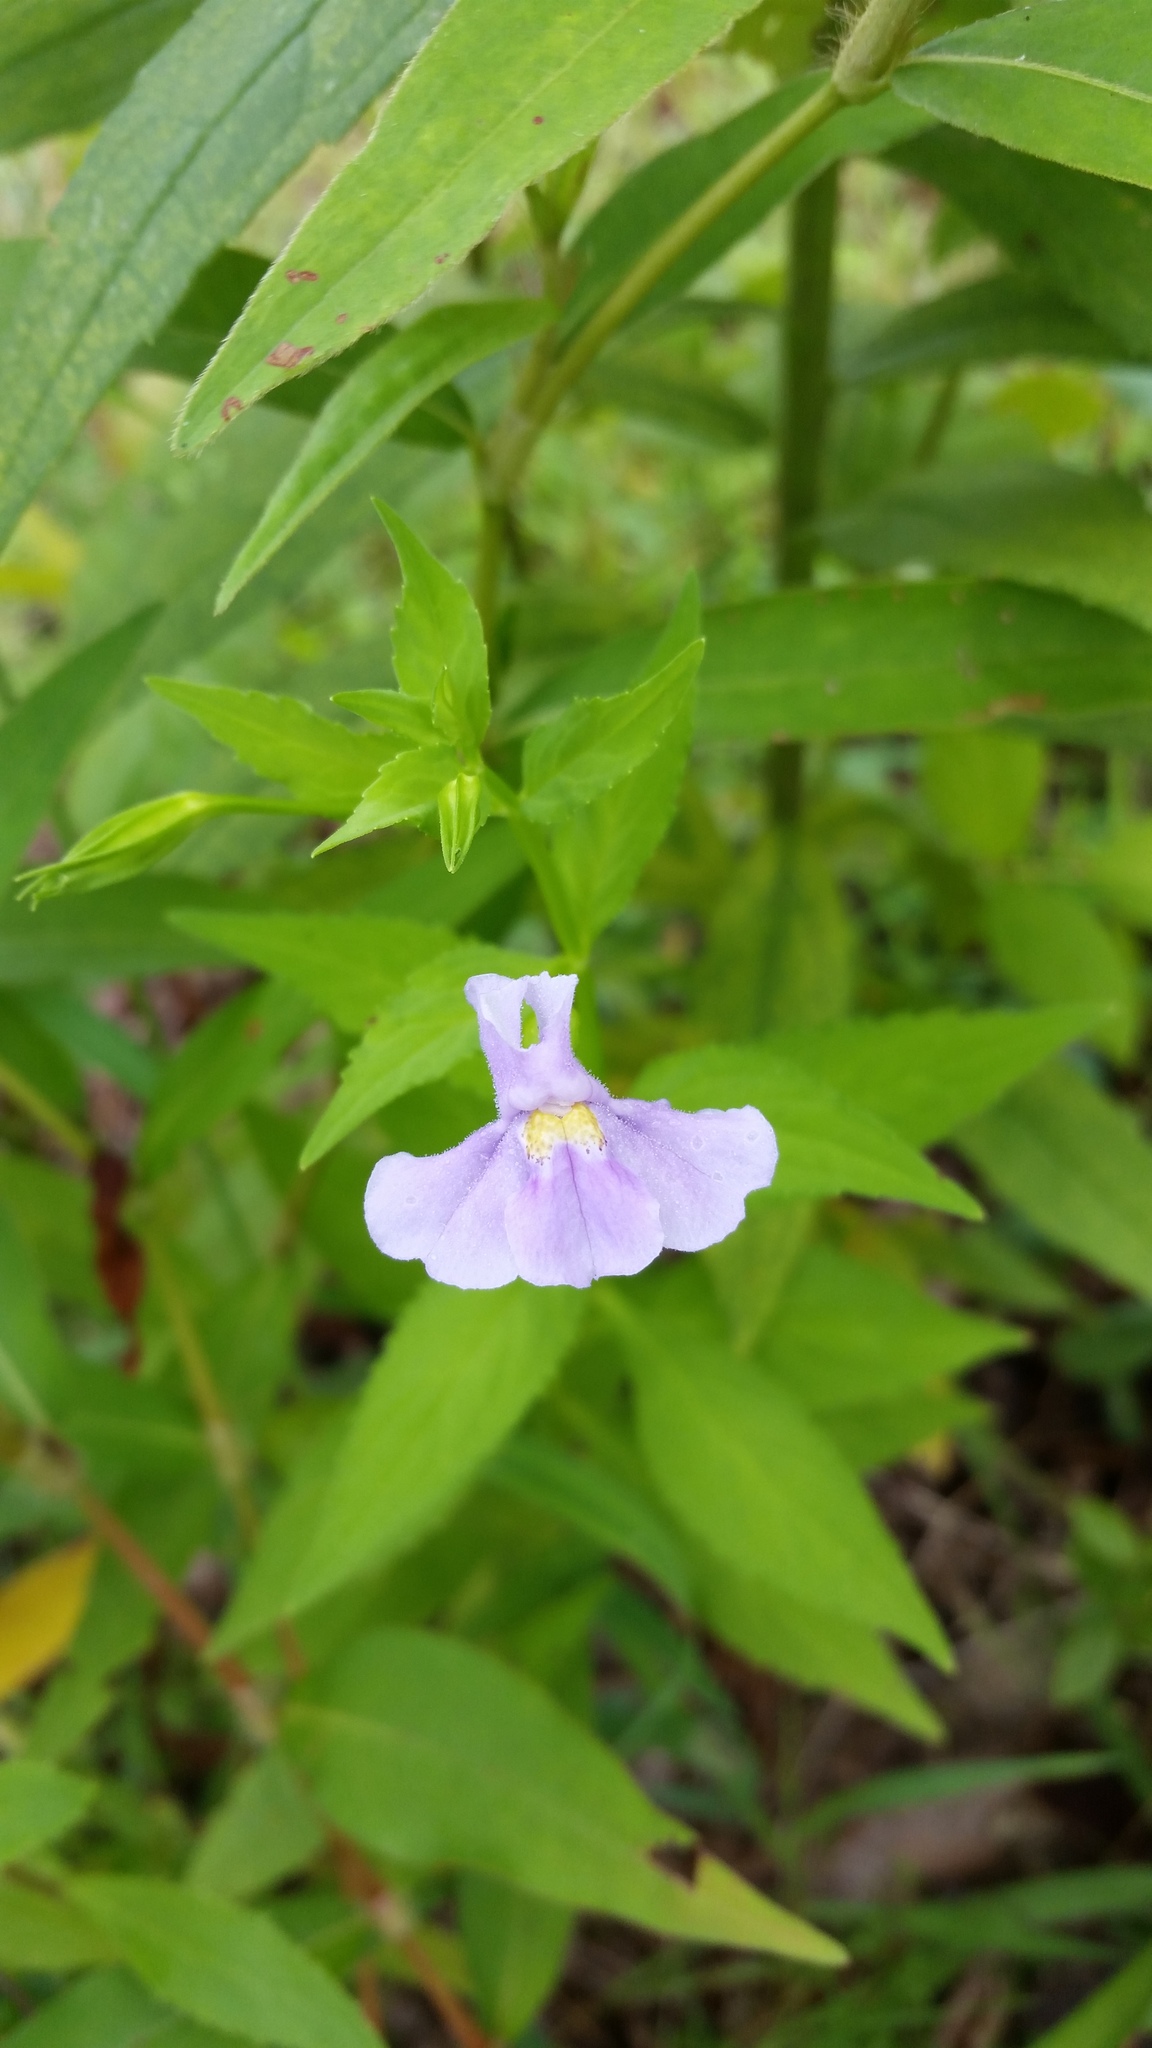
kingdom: Plantae
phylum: Tracheophyta
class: Magnoliopsida
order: Lamiales
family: Phrymaceae
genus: Mimulus
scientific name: Mimulus ringens
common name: Allegheny monkeyflower
